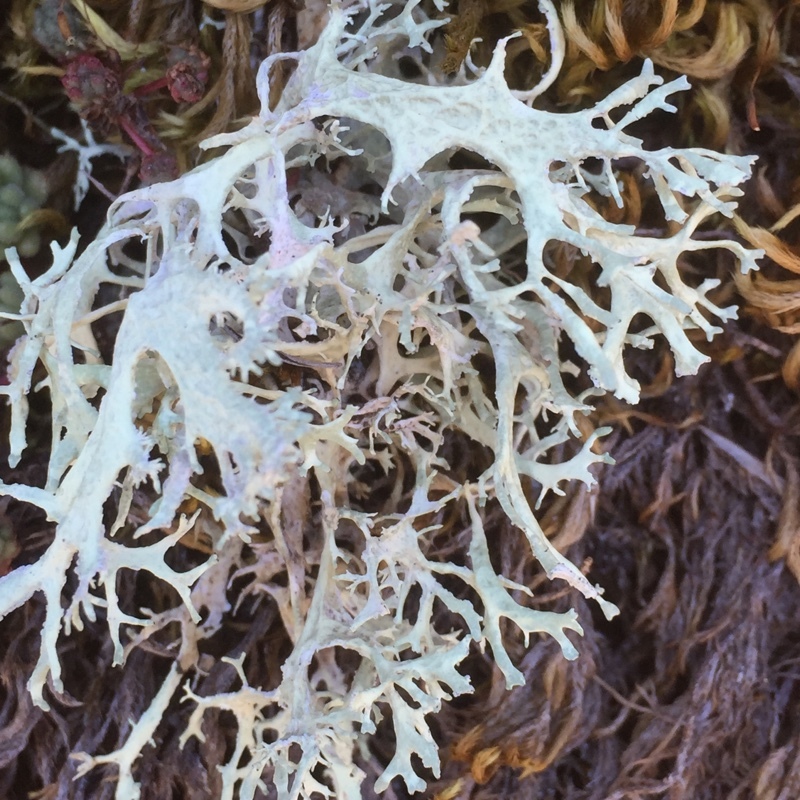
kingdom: Fungi
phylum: Ascomycota
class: Lecanoromycetes
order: Lecanorales
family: Parmeliaceae
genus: Evernia
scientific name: Evernia prunastri
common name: Oak moss
